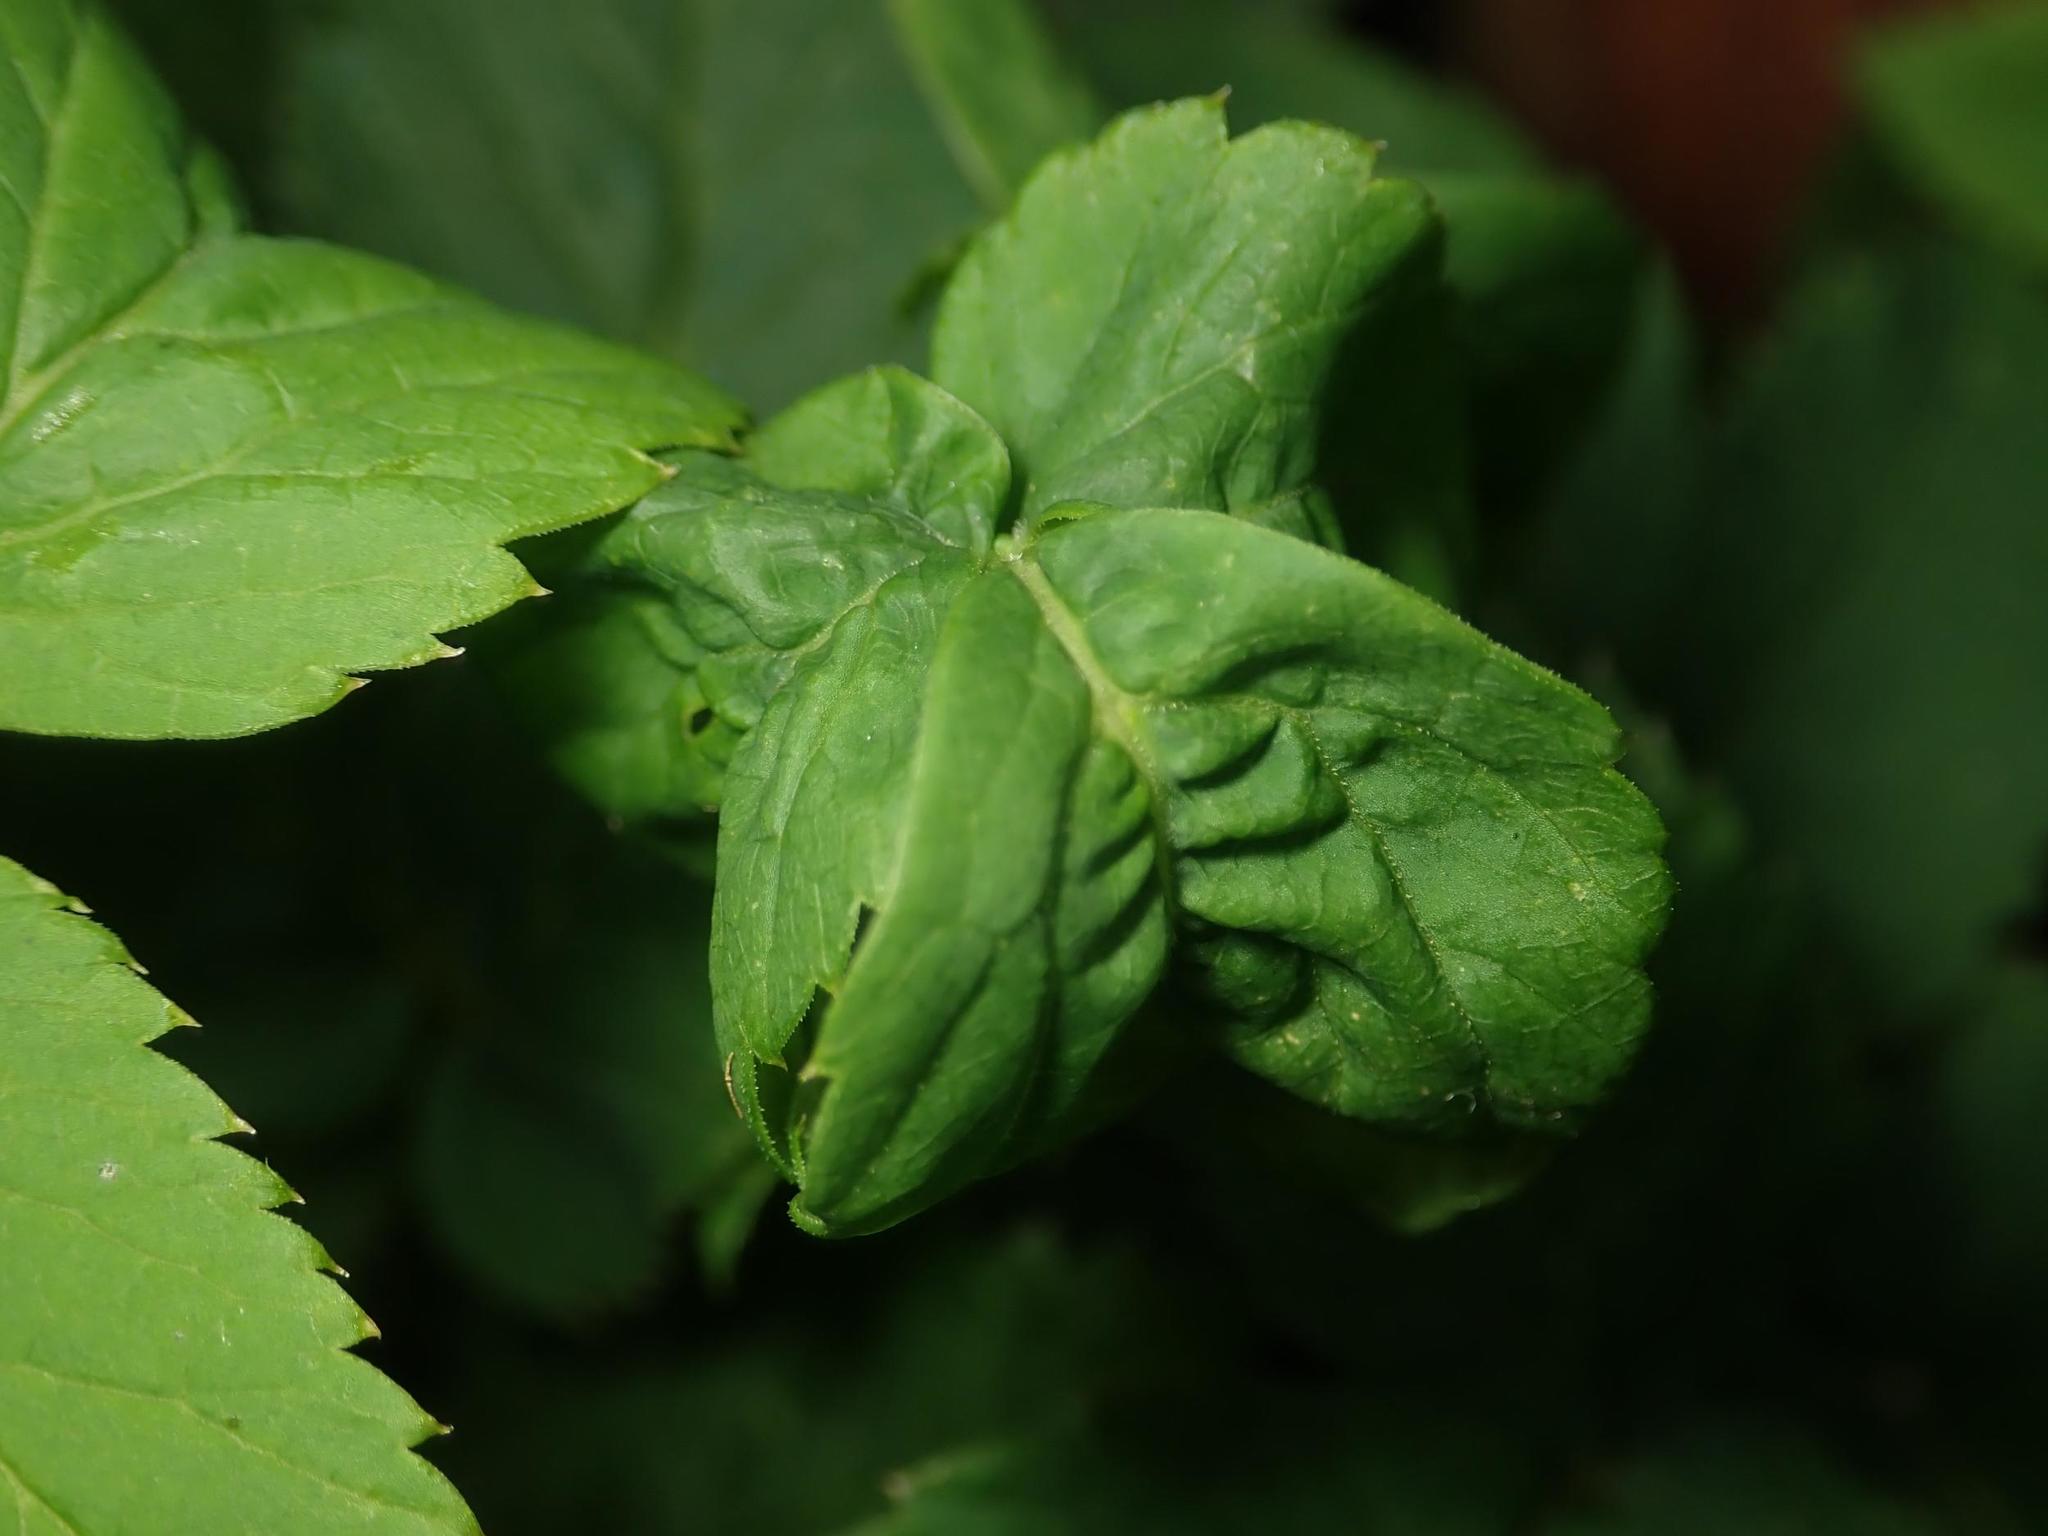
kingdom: Animalia
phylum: Arthropoda
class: Insecta
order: Hemiptera
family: Aphididae
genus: Aphis
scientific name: Aphis podagrariae
